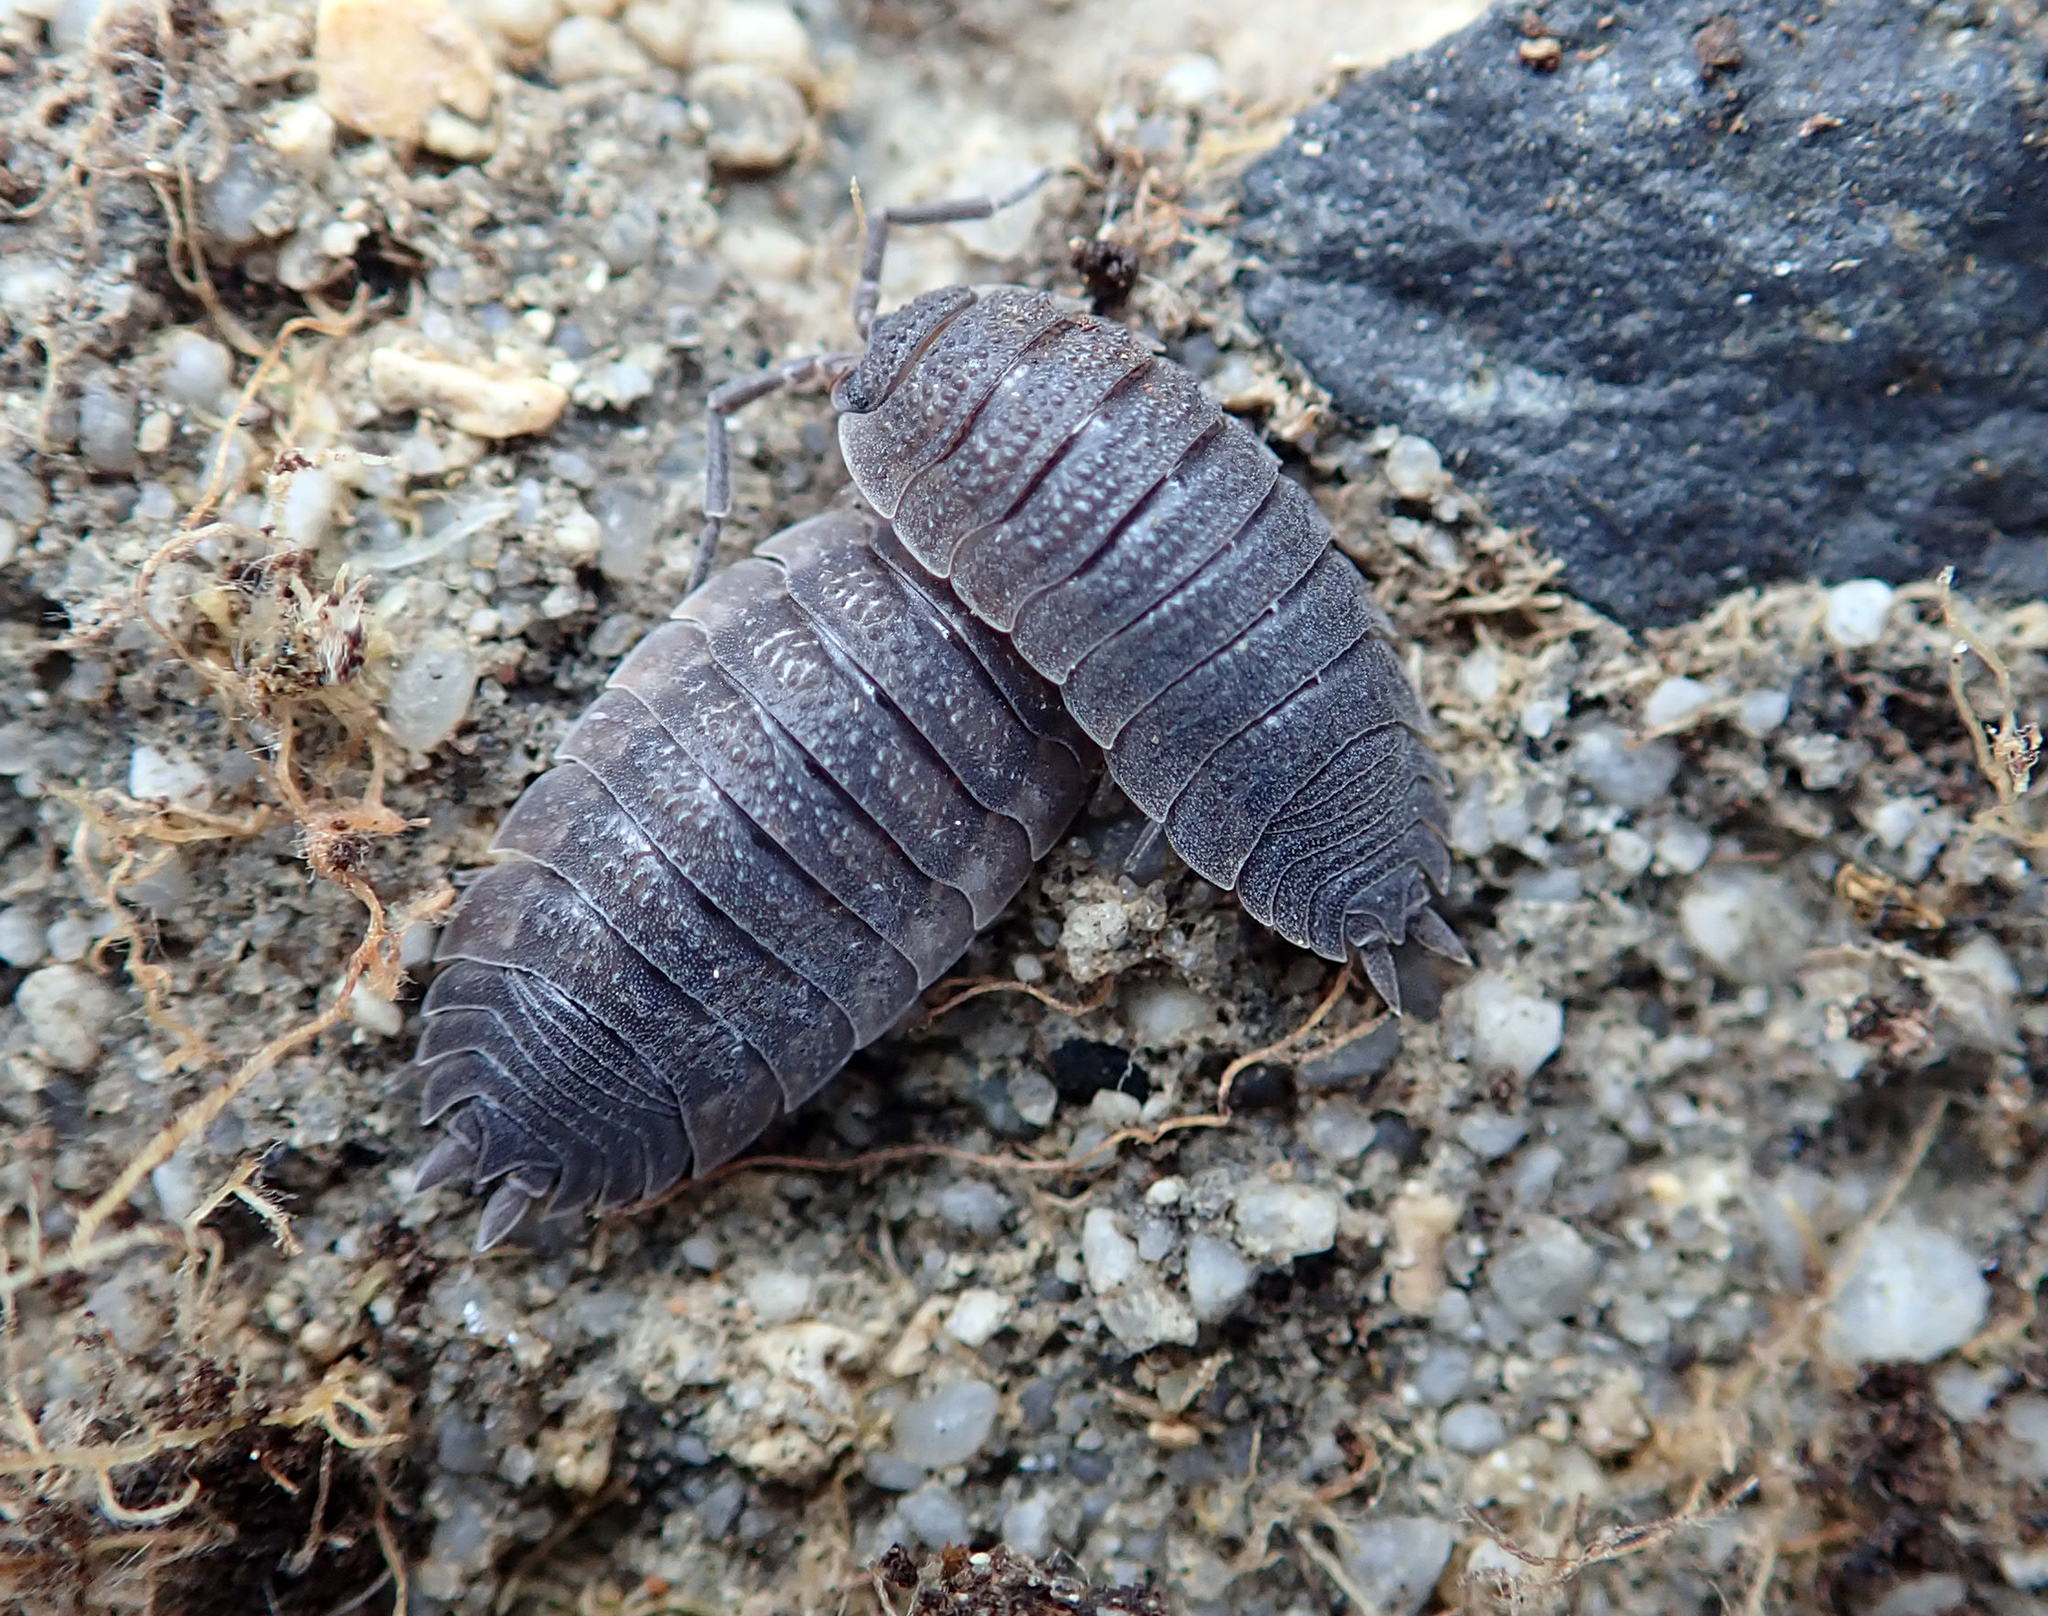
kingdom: Animalia
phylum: Arthropoda
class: Malacostraca
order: Isopoda
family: Porcellionidae
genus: Porcellio
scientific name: Porcellio scaber
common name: Common rough woodlouse
